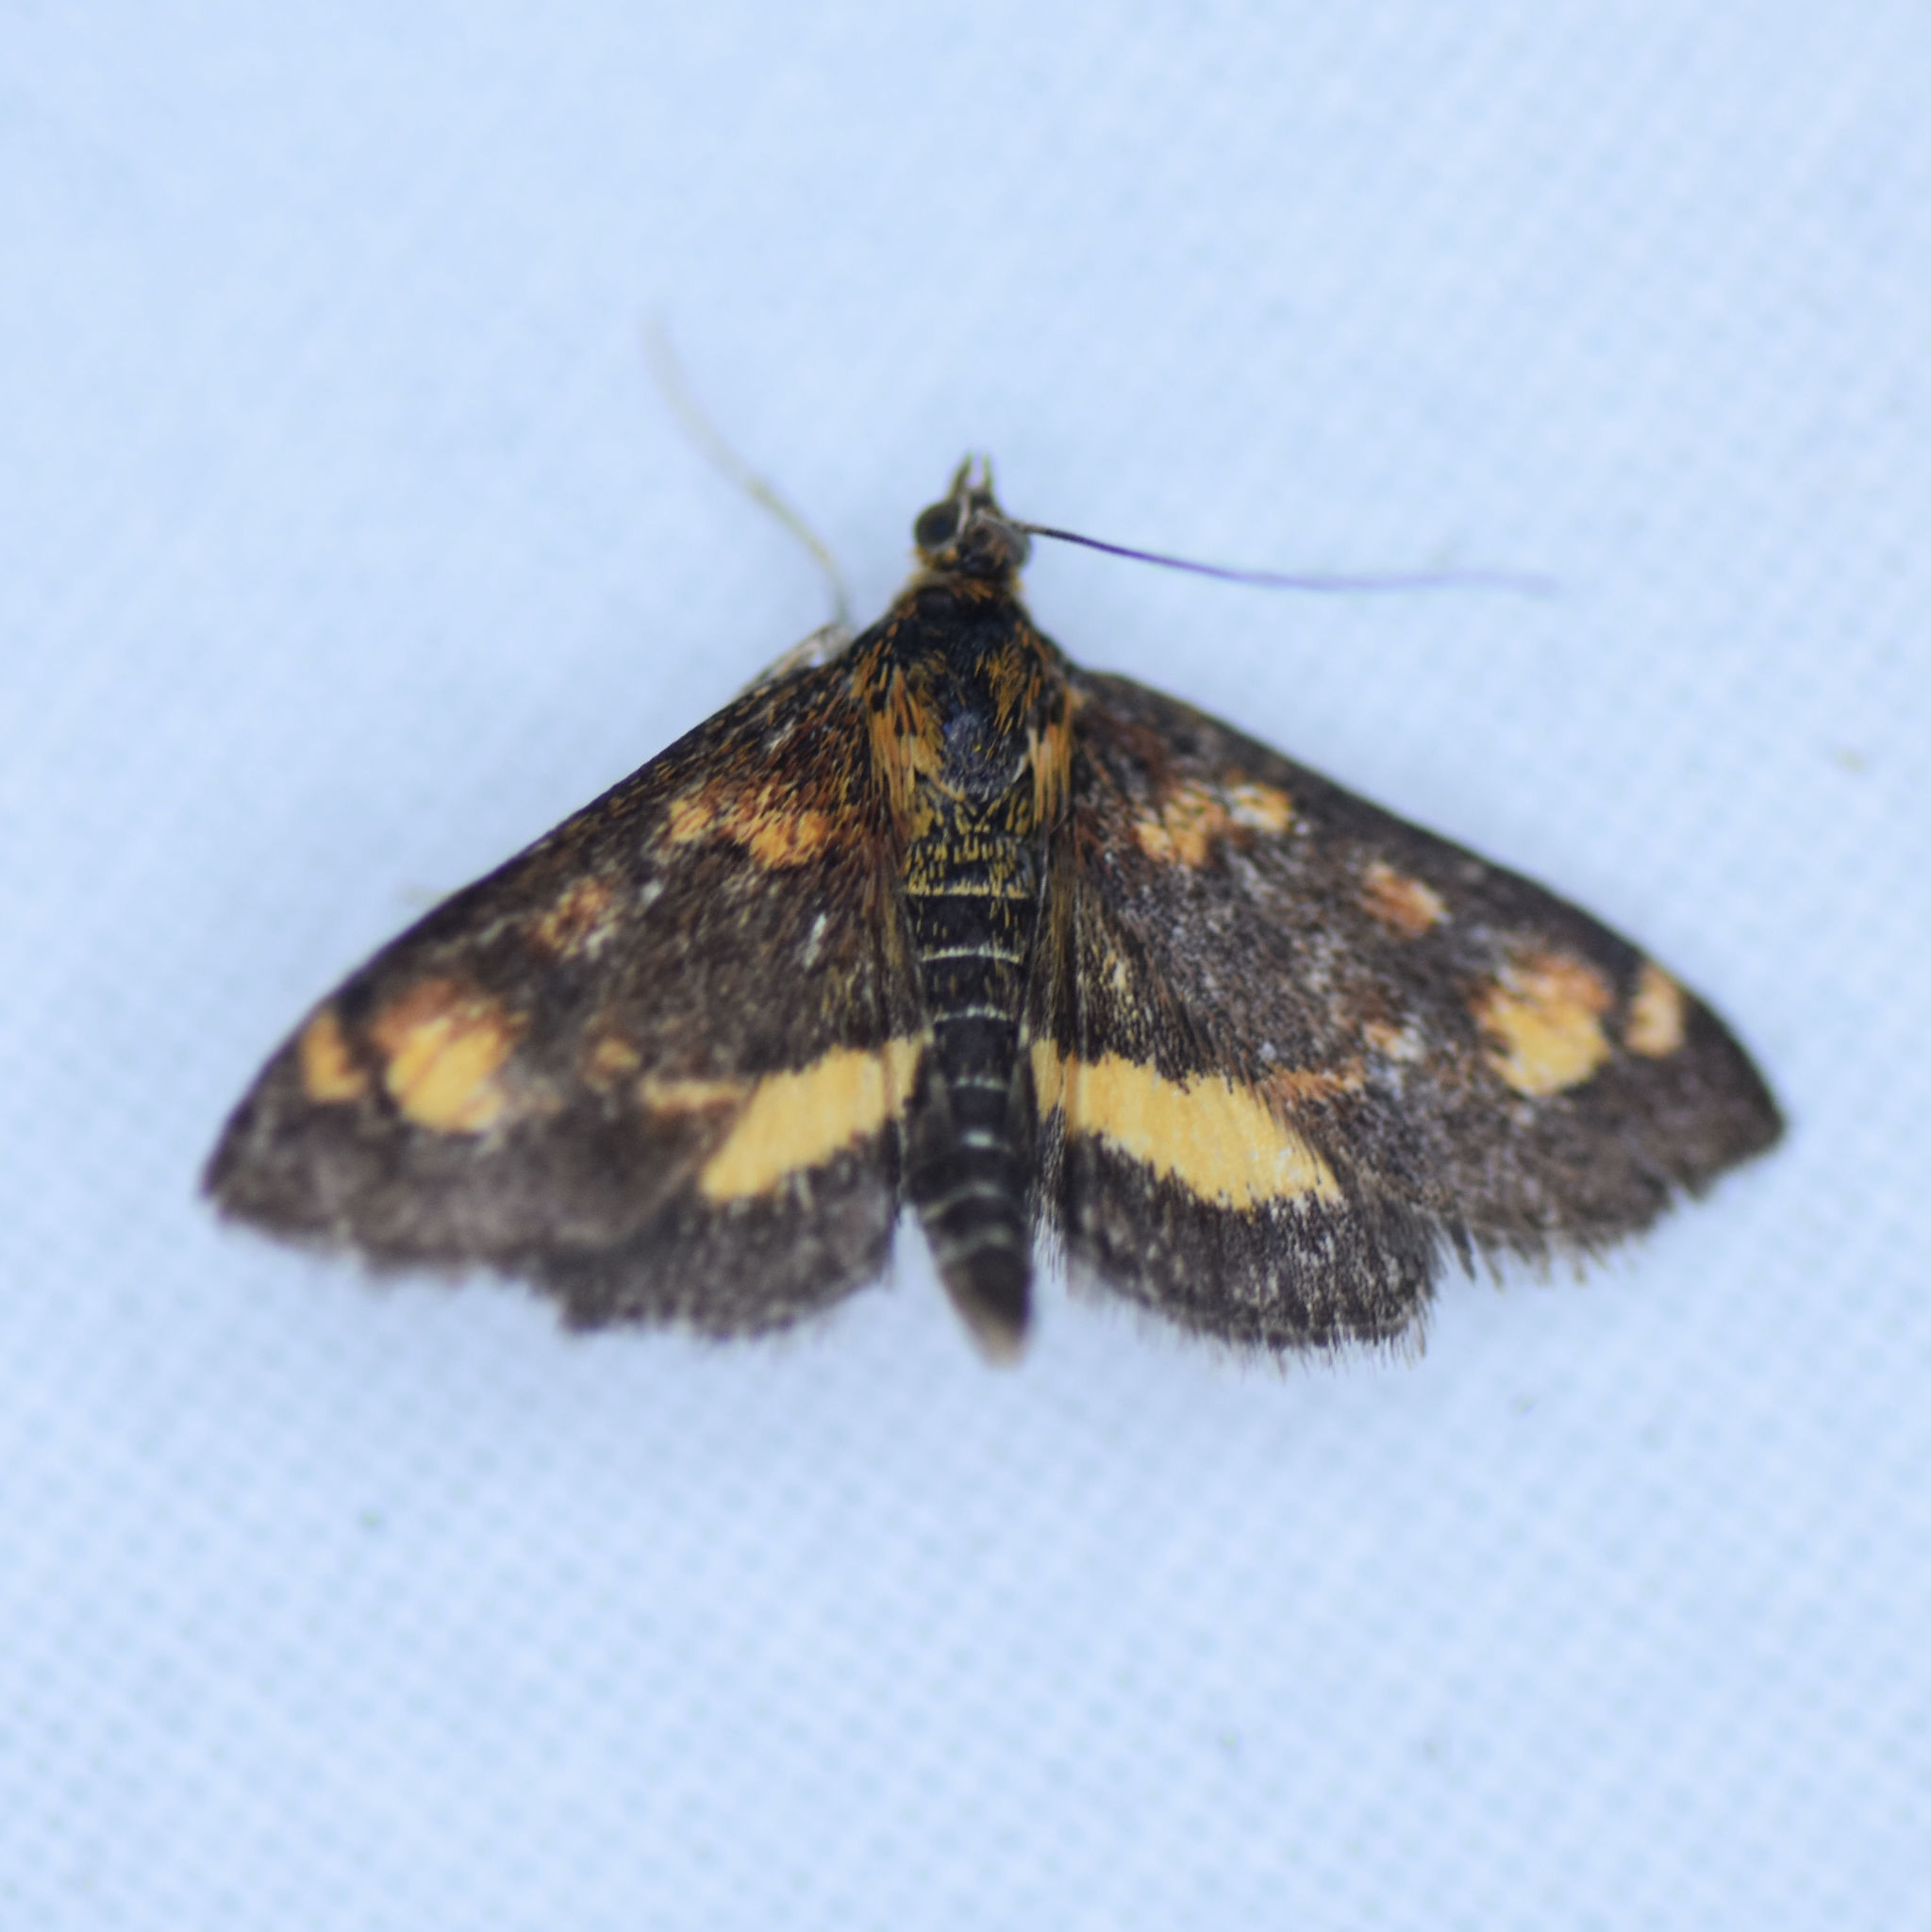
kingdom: Animalia
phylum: Arthropoda
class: Insecta
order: Lepidoptera
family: Crambidae
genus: Pyrausta
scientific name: Pyrausta orphisalis
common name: Orange mint moth
